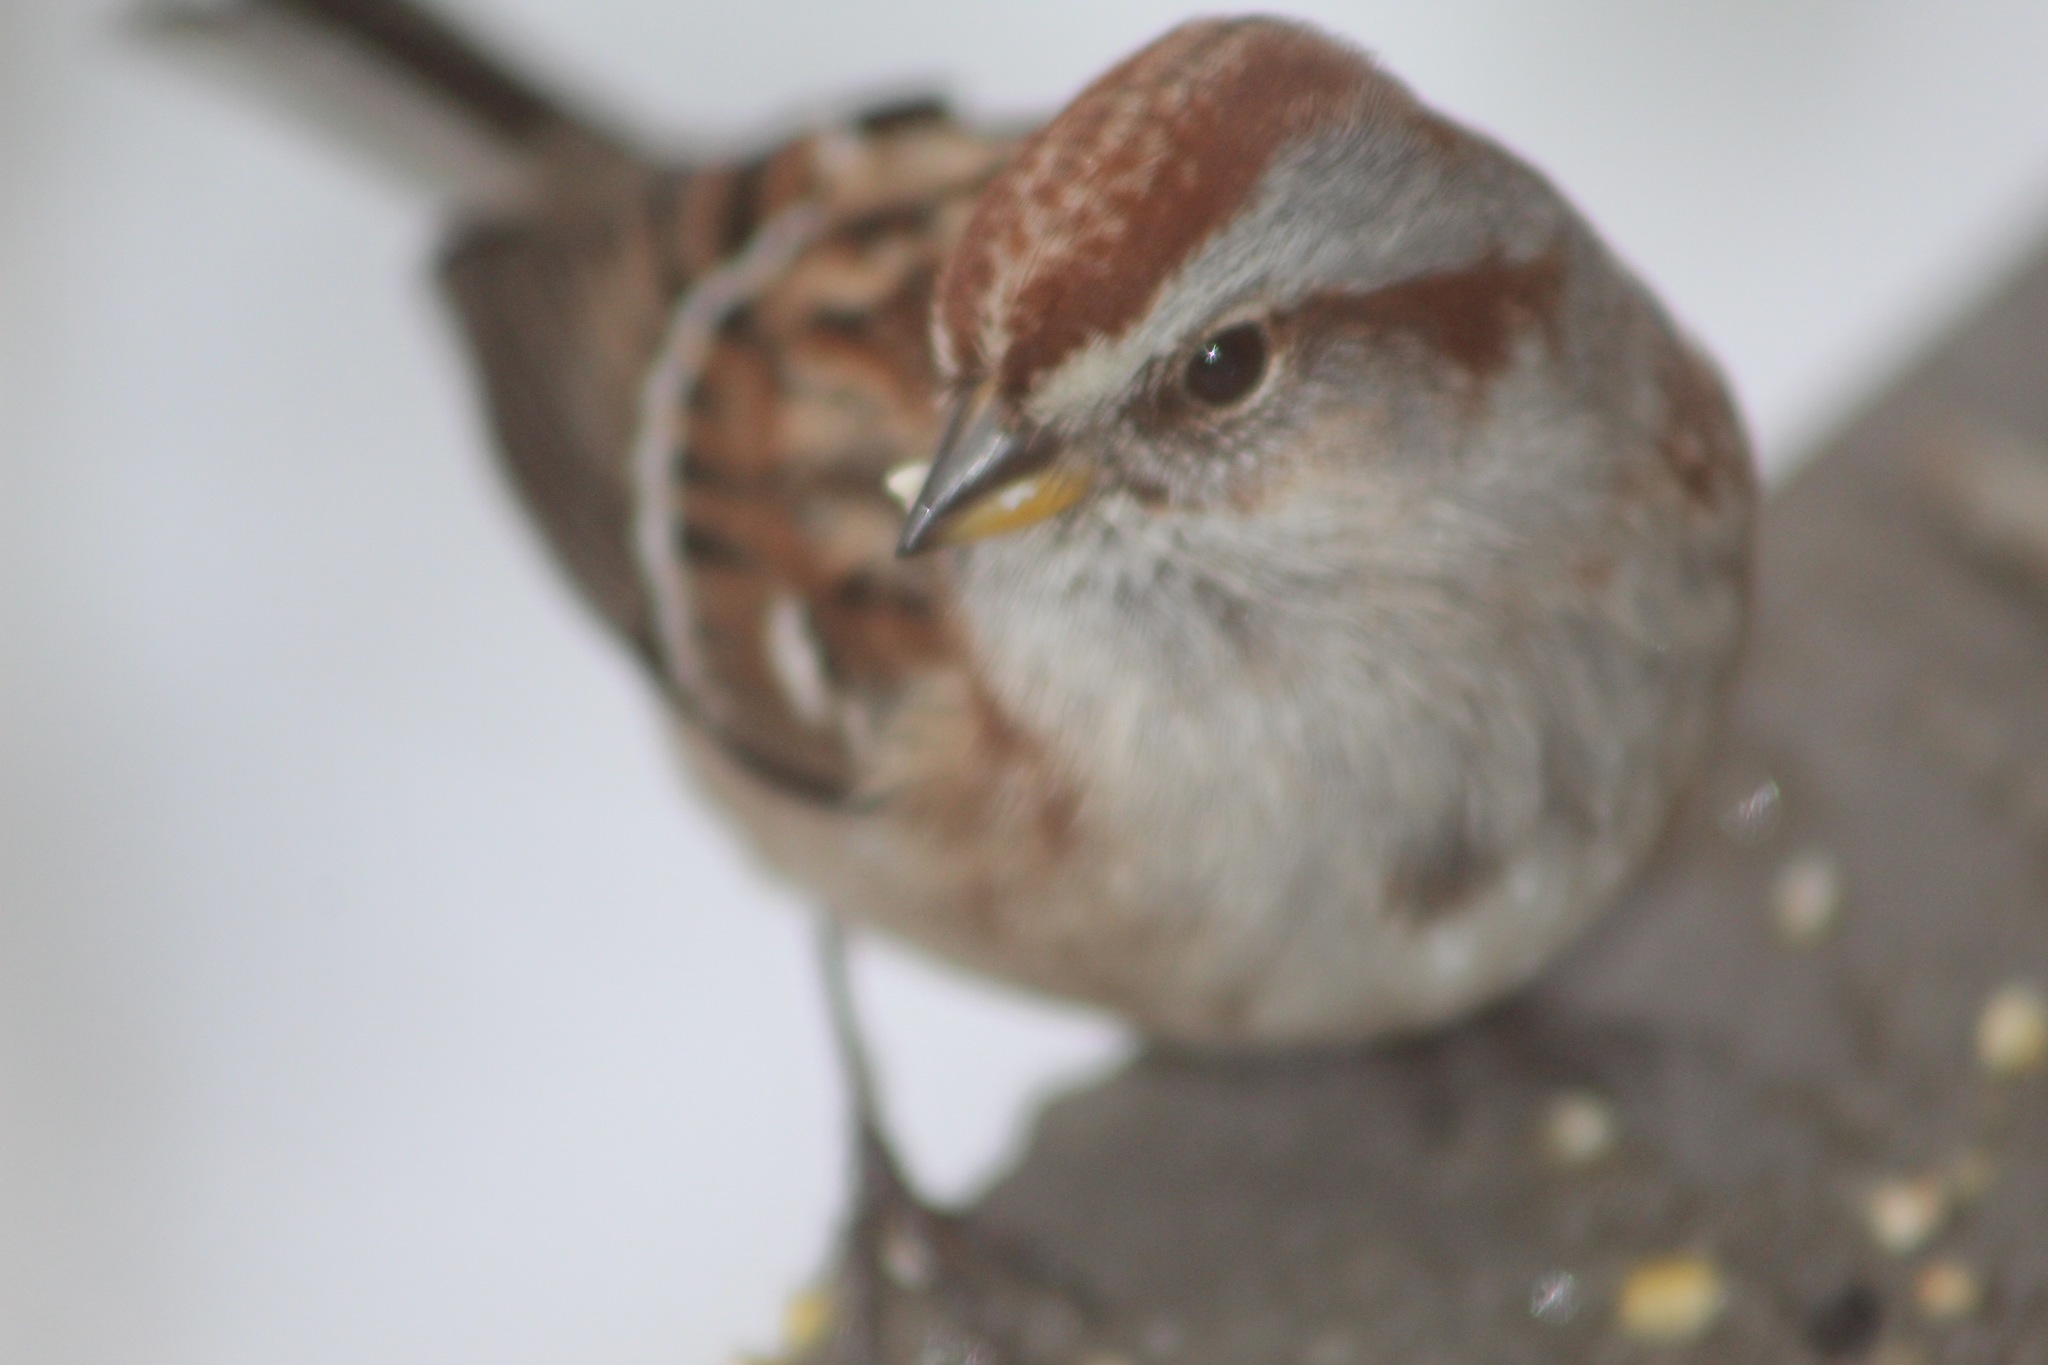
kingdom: Animalia
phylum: Chordata
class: Aves
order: Passeriformes
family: Passerellidae
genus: Spizelloides
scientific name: Spizelloides arborea
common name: American tree sparrow
